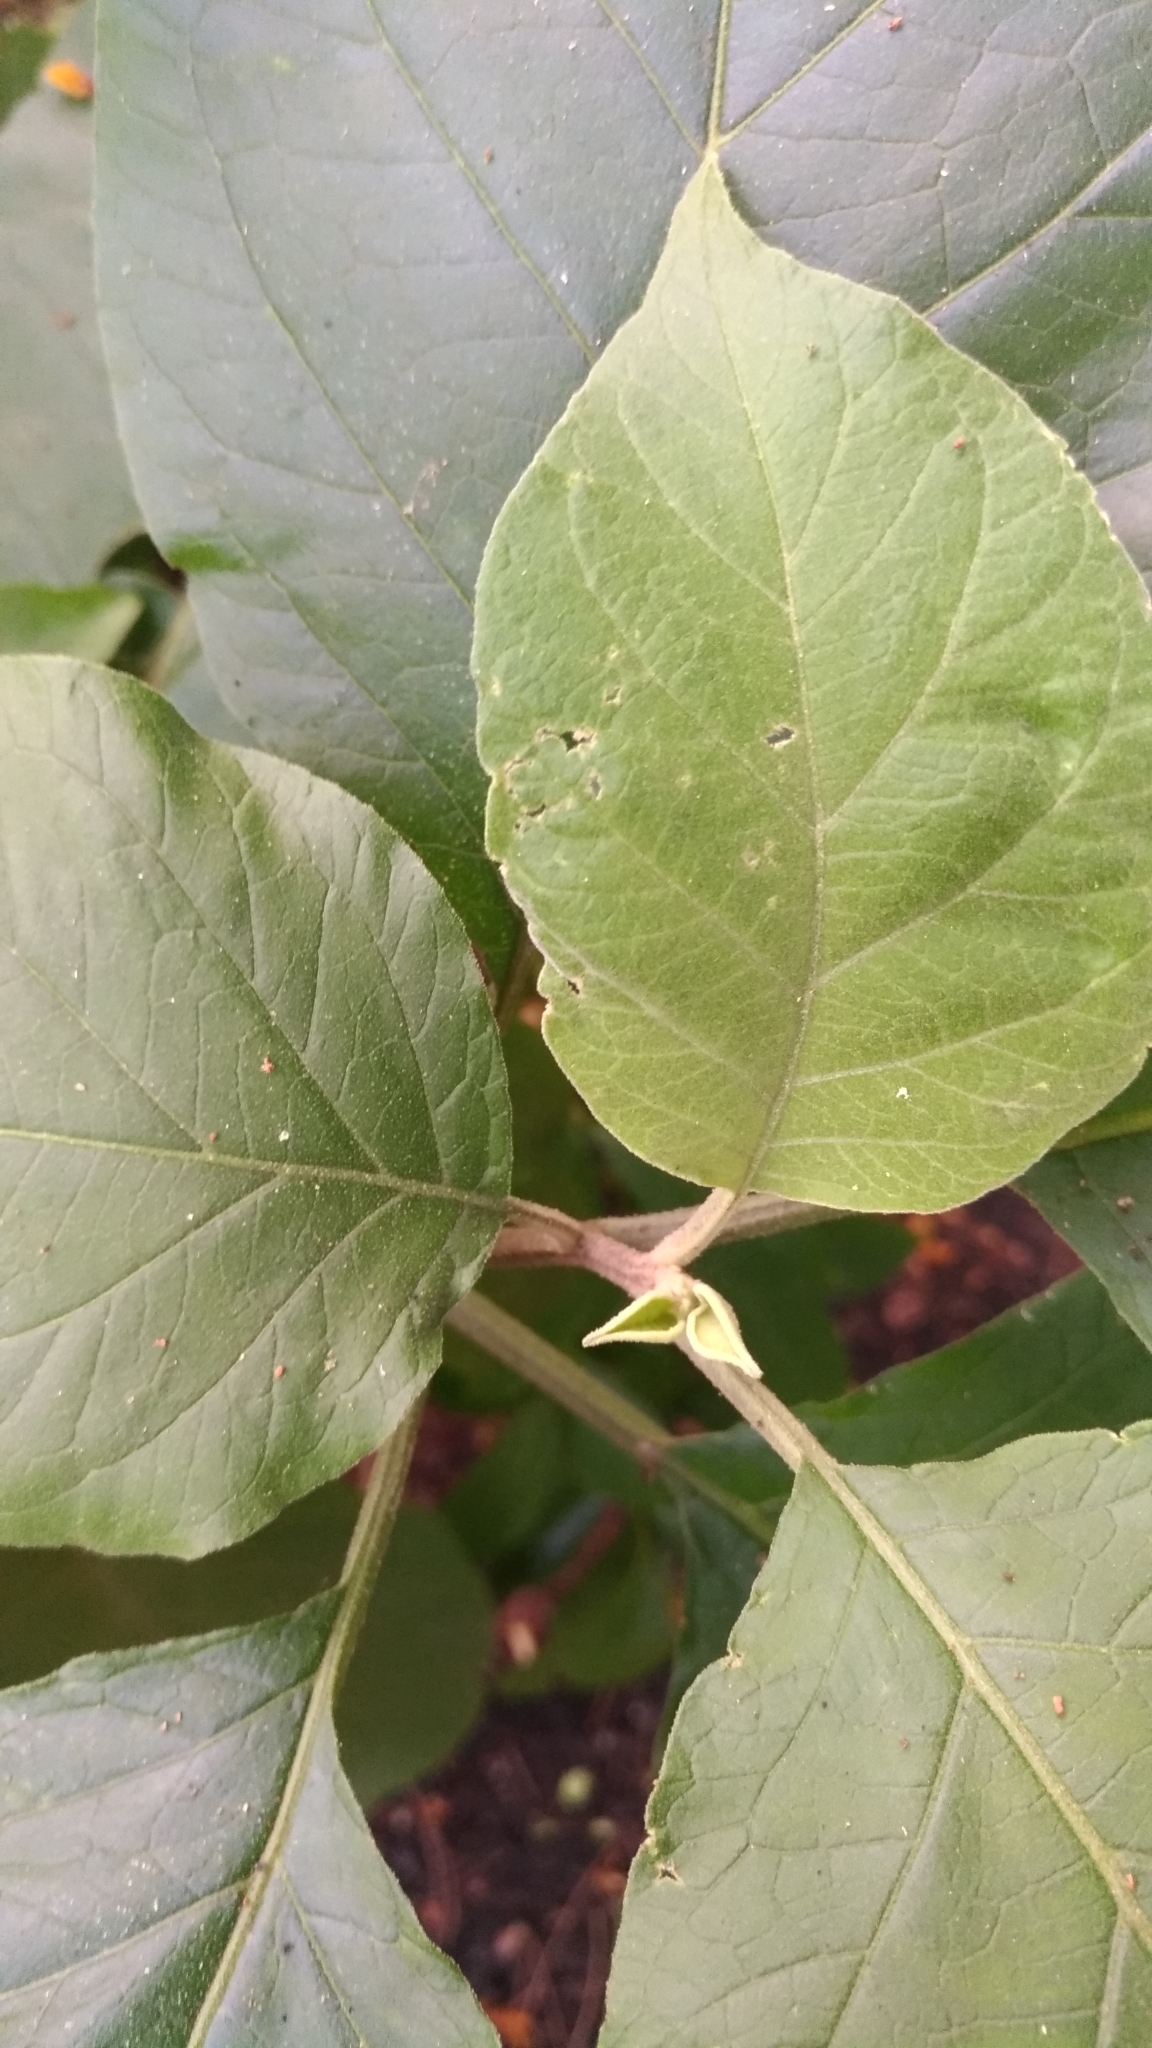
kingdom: Plantae
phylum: Tracheophyta
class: Magnoliopsida
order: Solanales
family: Solanaceae
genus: Solanum
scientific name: Solanum erianthum
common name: Tobacco-tree
